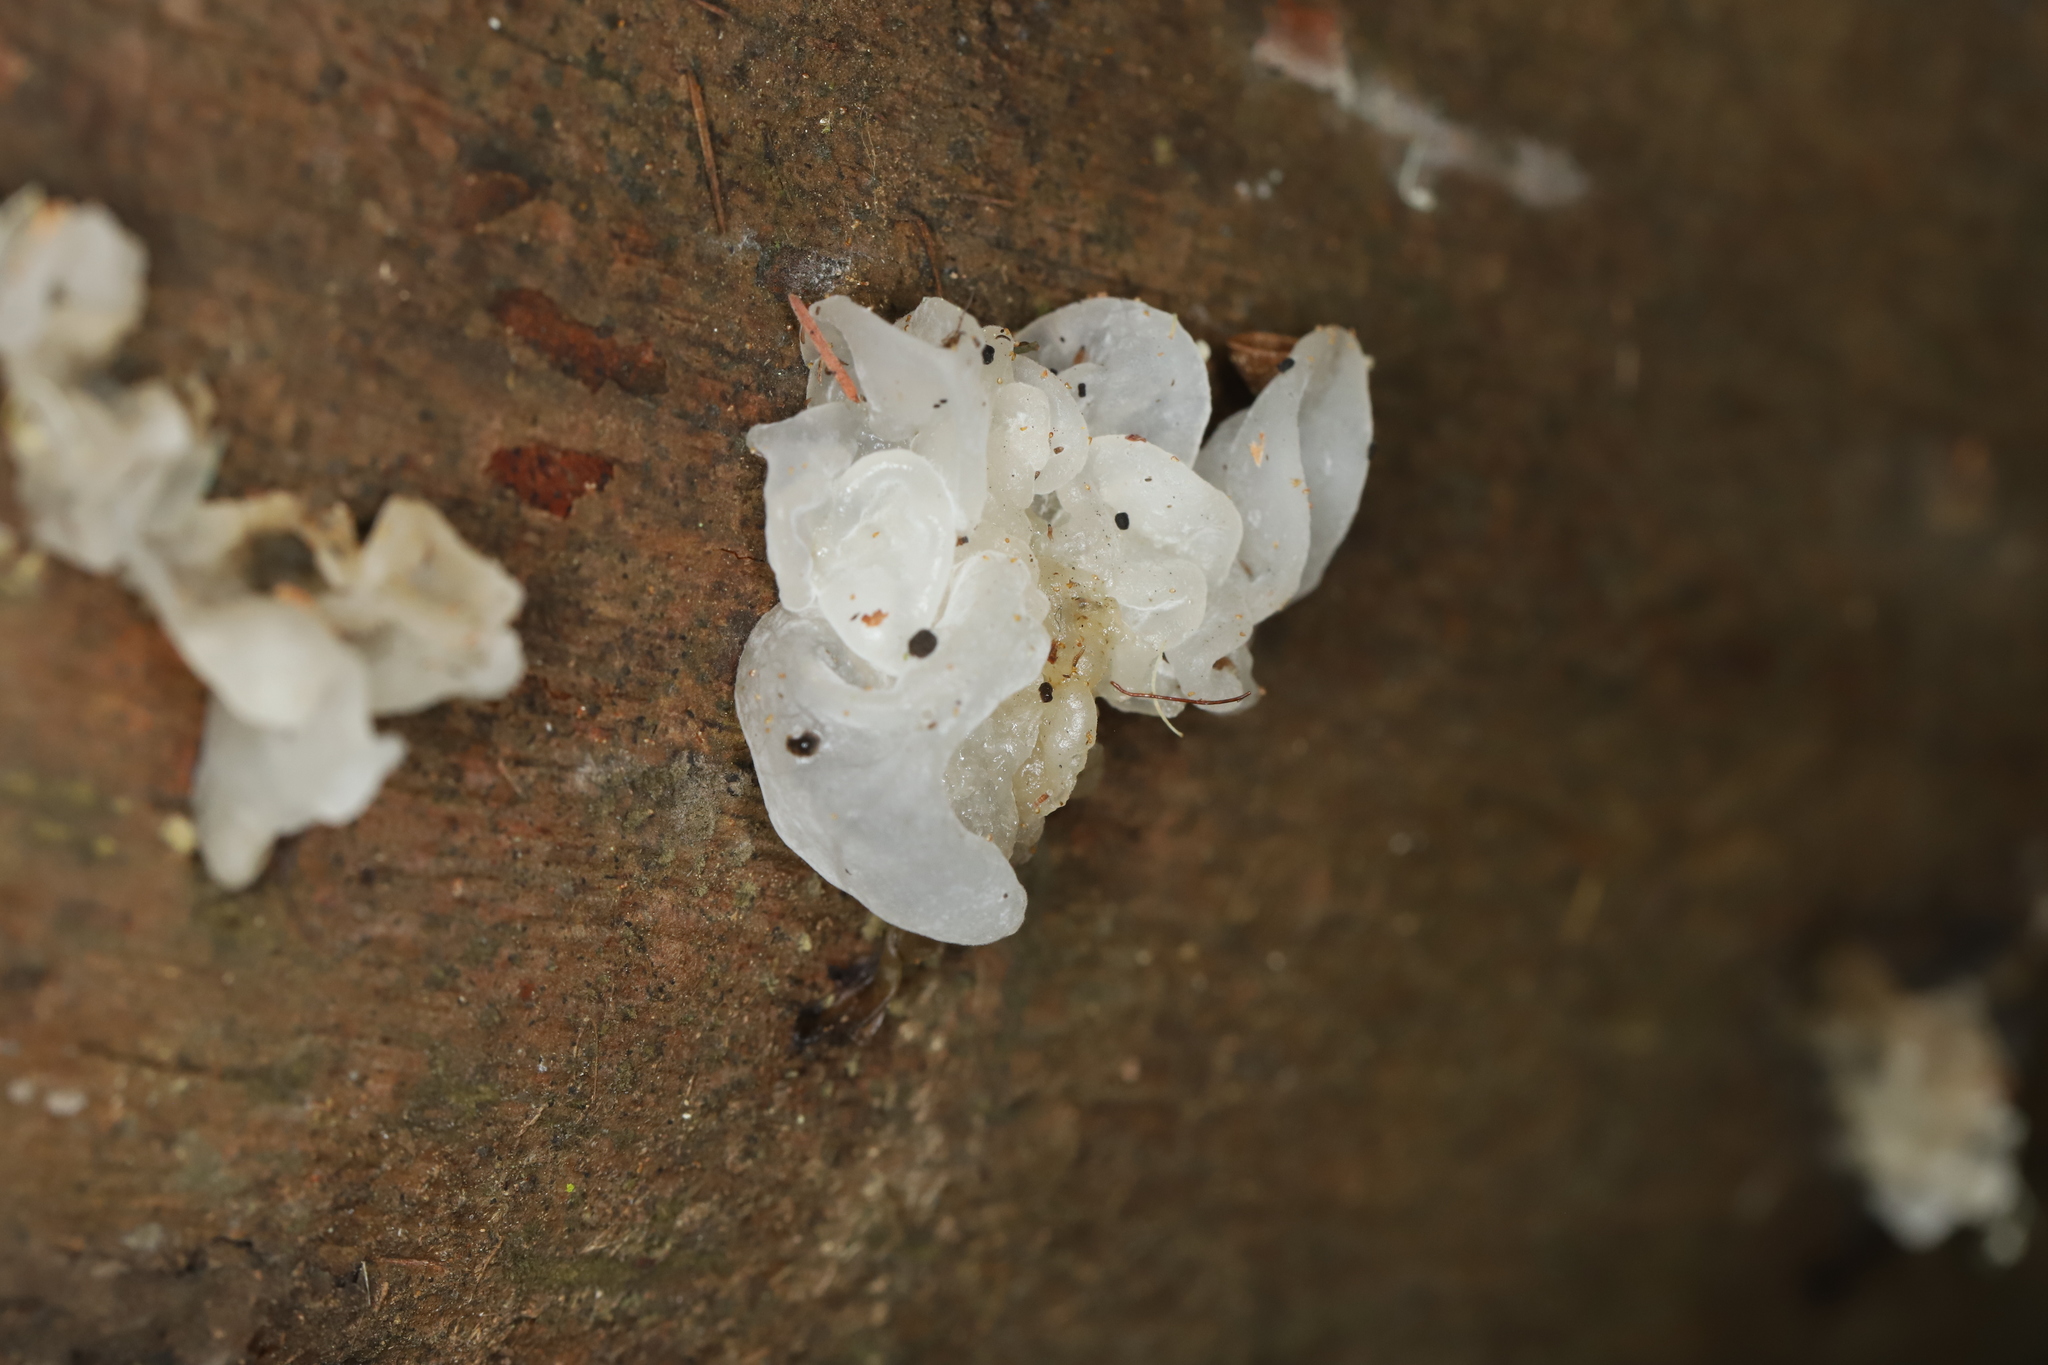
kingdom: Fungi
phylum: Basidiomycota
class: Tremellomycetes
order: Tremellales
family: Tremellaceae
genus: Tremella
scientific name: Tremella fuciformis
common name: Snow fungus
